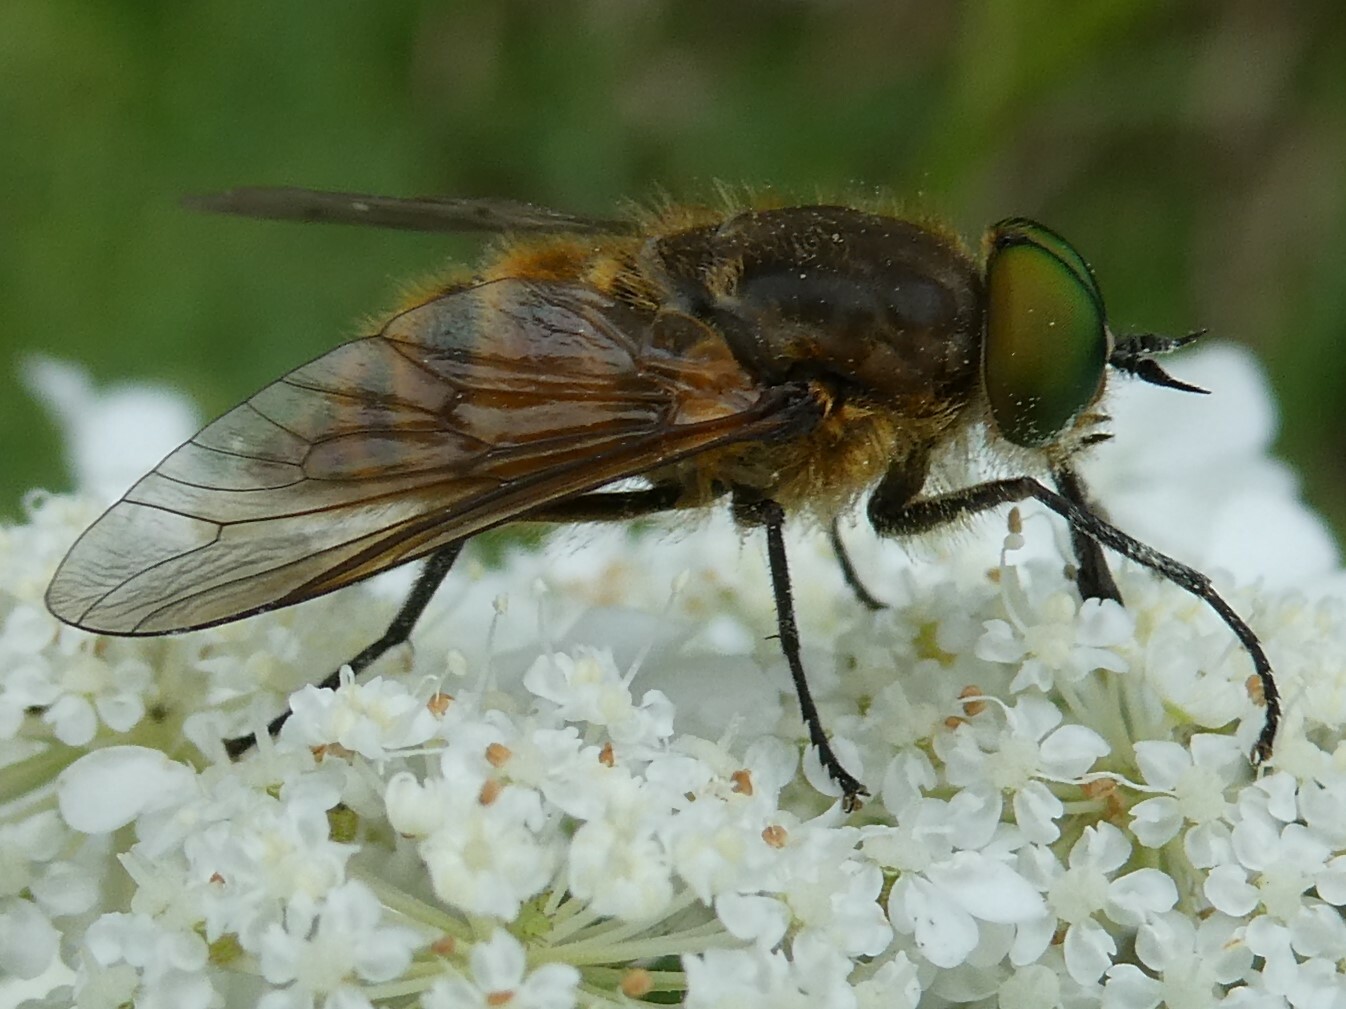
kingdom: Animalia
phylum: Arthropoda
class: Insecta
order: Diptera
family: Tabanidae
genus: Stonemyia
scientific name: Stonemyia tranquilla
